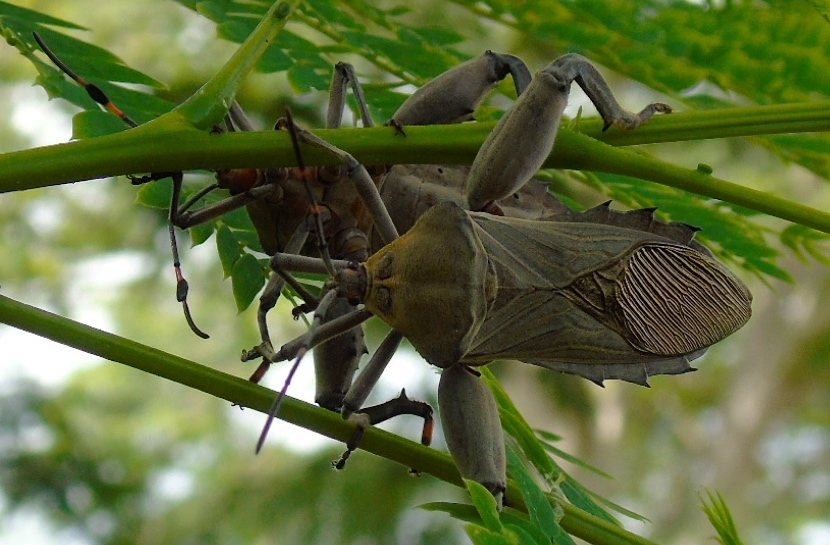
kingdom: Animalia
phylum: Arthropoda
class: Insecta
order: Hemiptera
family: Coreidae
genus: Pachylis
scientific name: Pachylis nervosus
